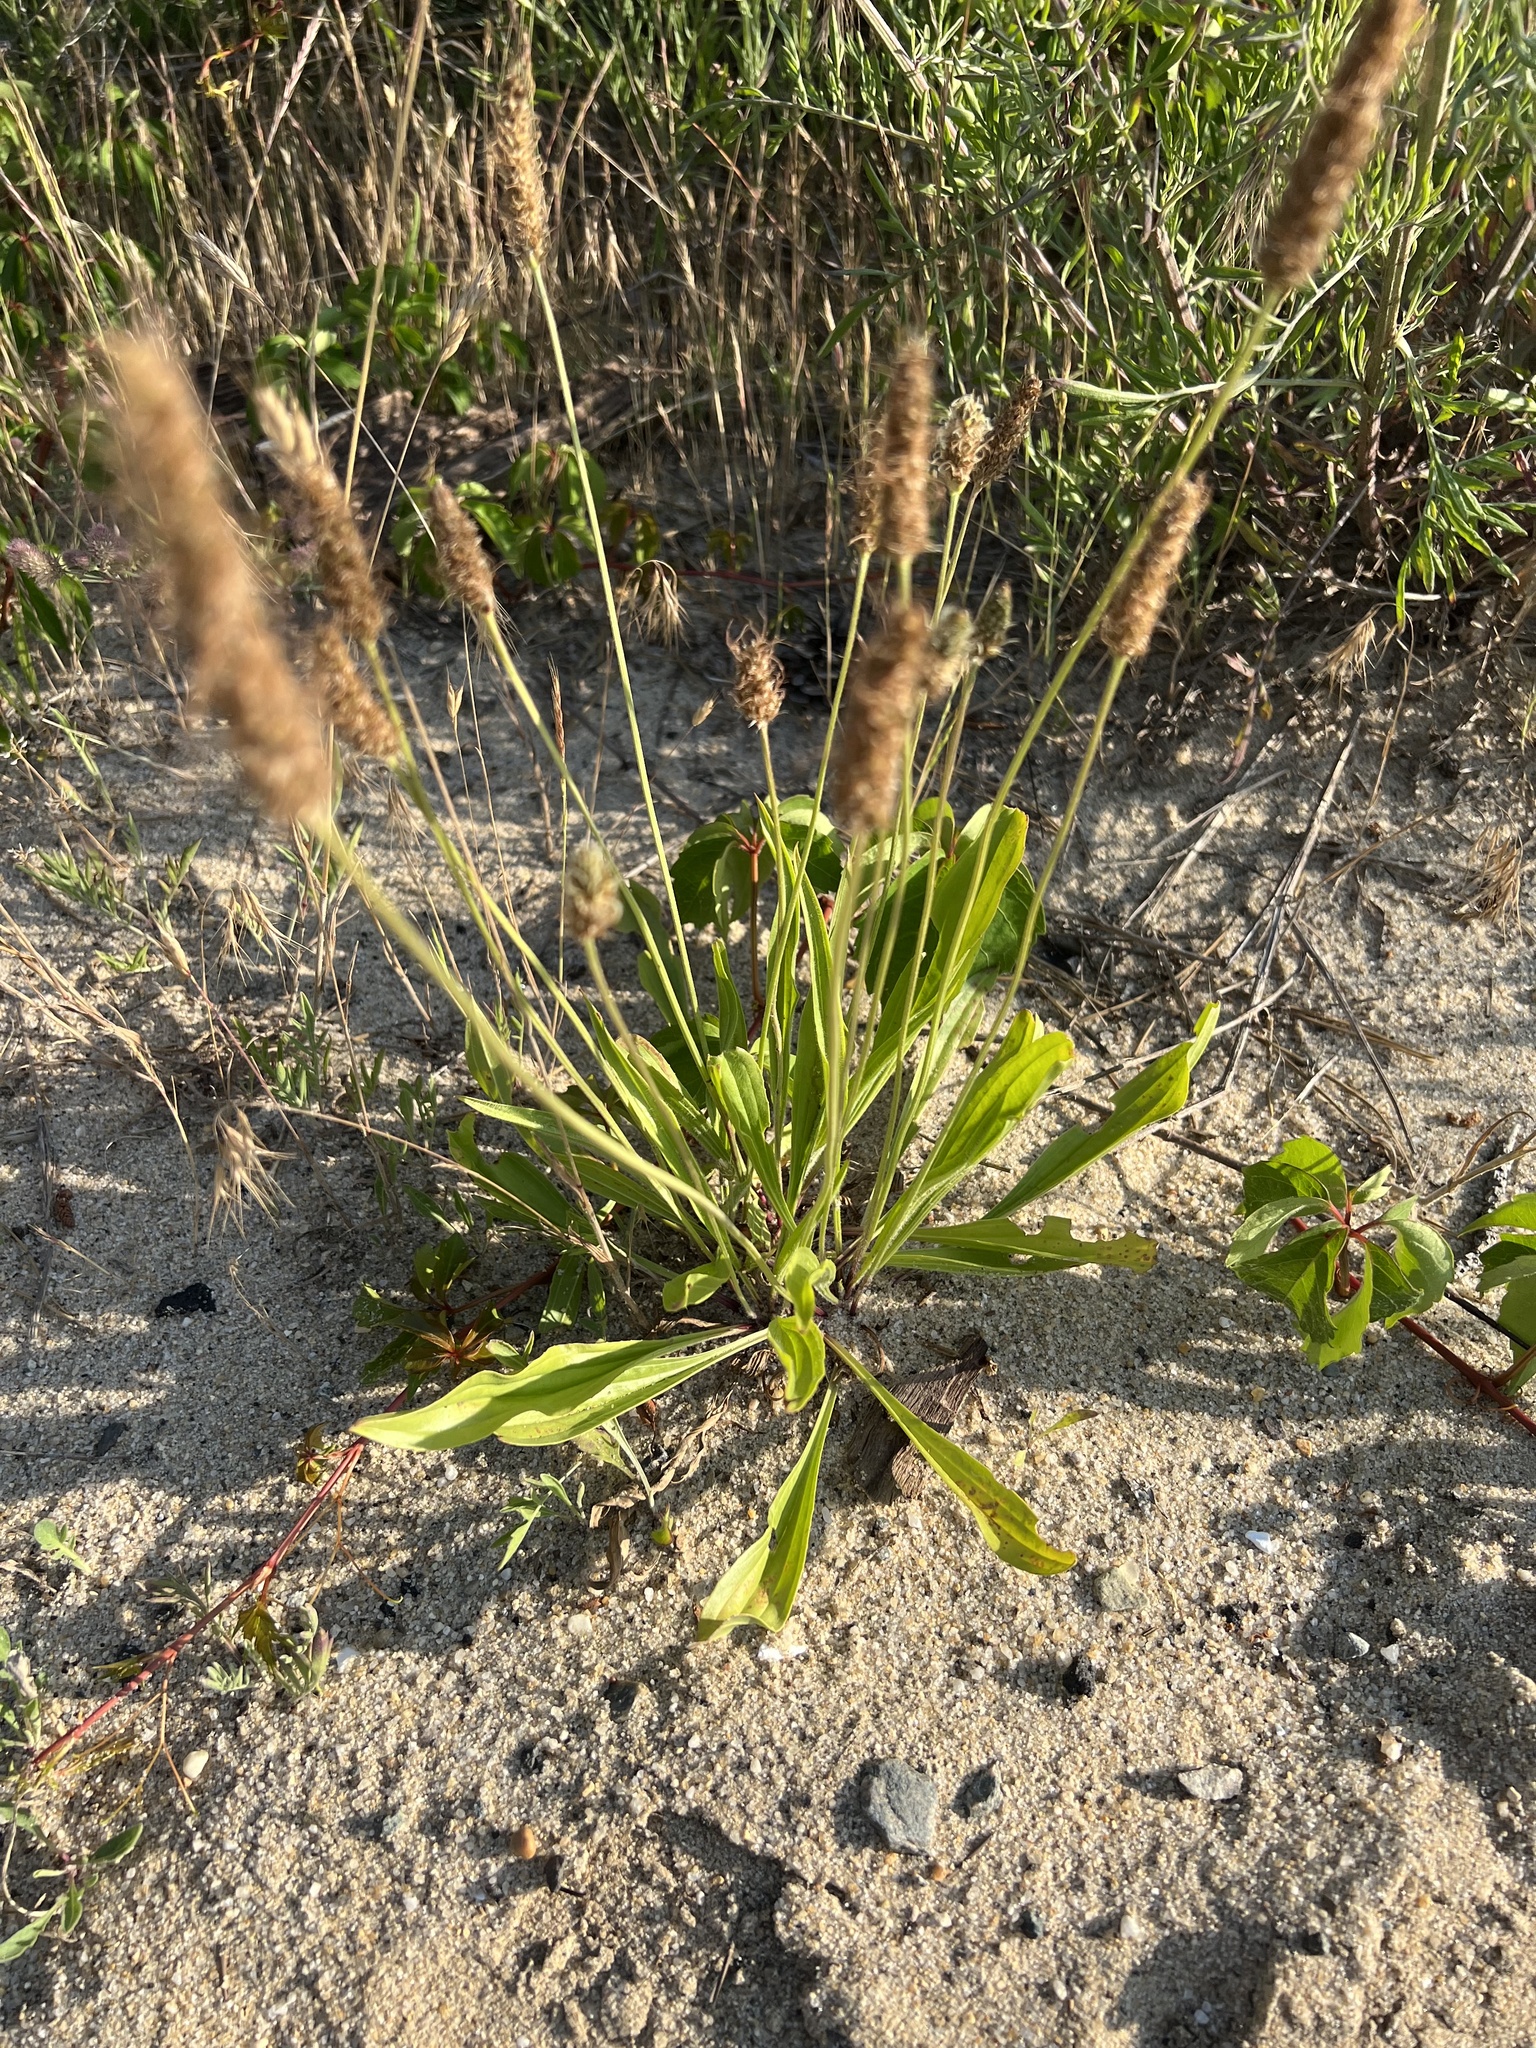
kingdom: Plantae
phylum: Tracheophyta
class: Magnoliopsida
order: Lamiales
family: Plantaginaceae
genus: Plantago
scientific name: Plantago lanceolata
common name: Ribwort plantain
